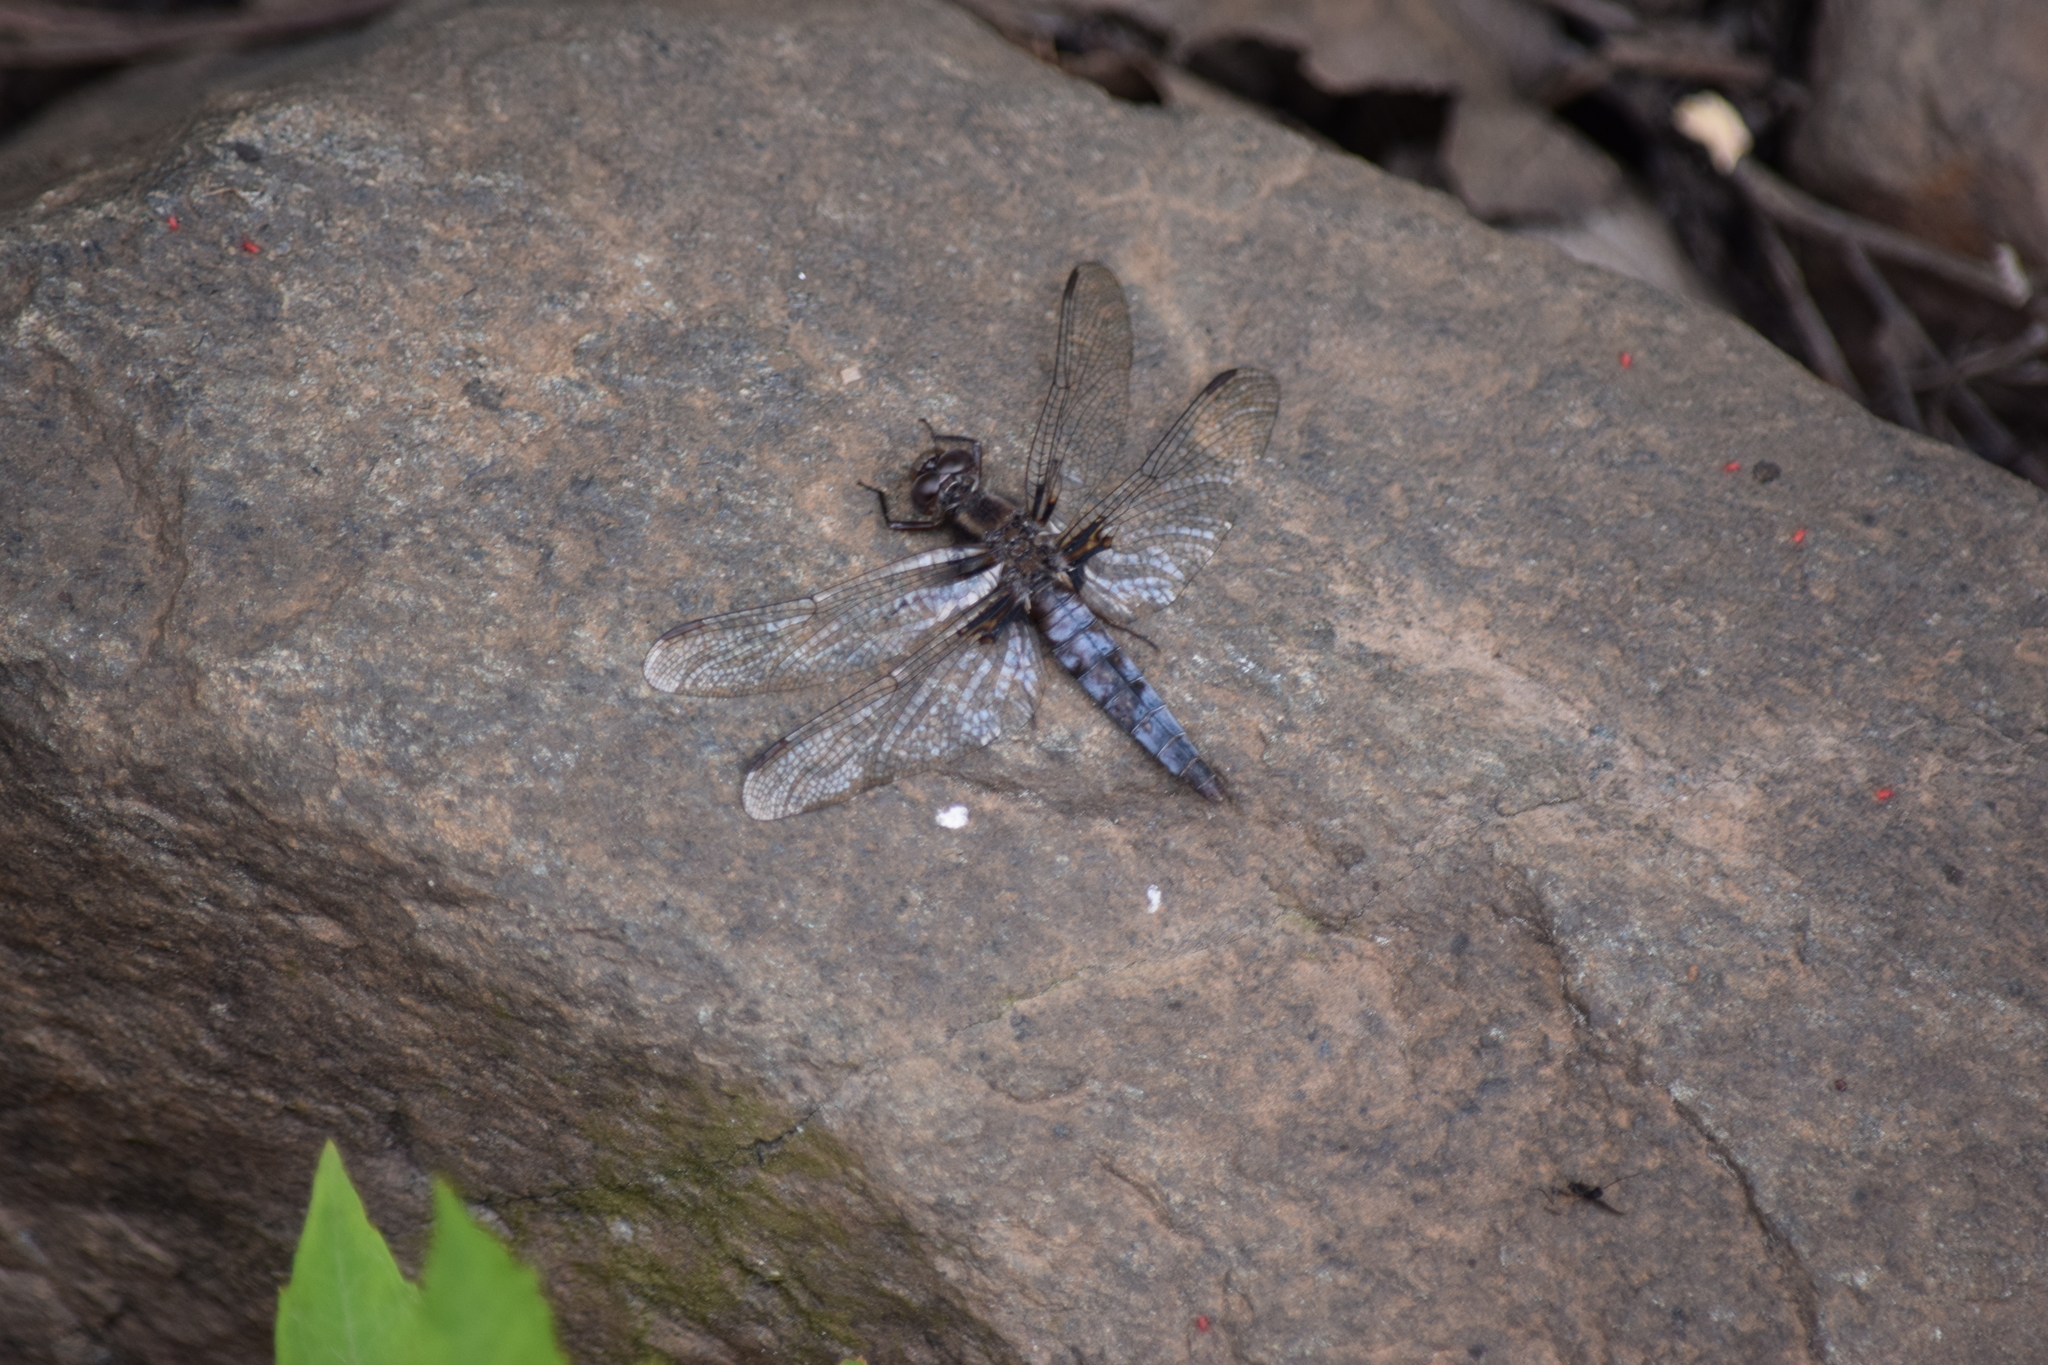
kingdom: Animalia
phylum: Arthropoda
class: Insecta
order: Odonata
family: Libellulidae
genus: Ladona
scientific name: Ladona deplanata
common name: Blue corporal
